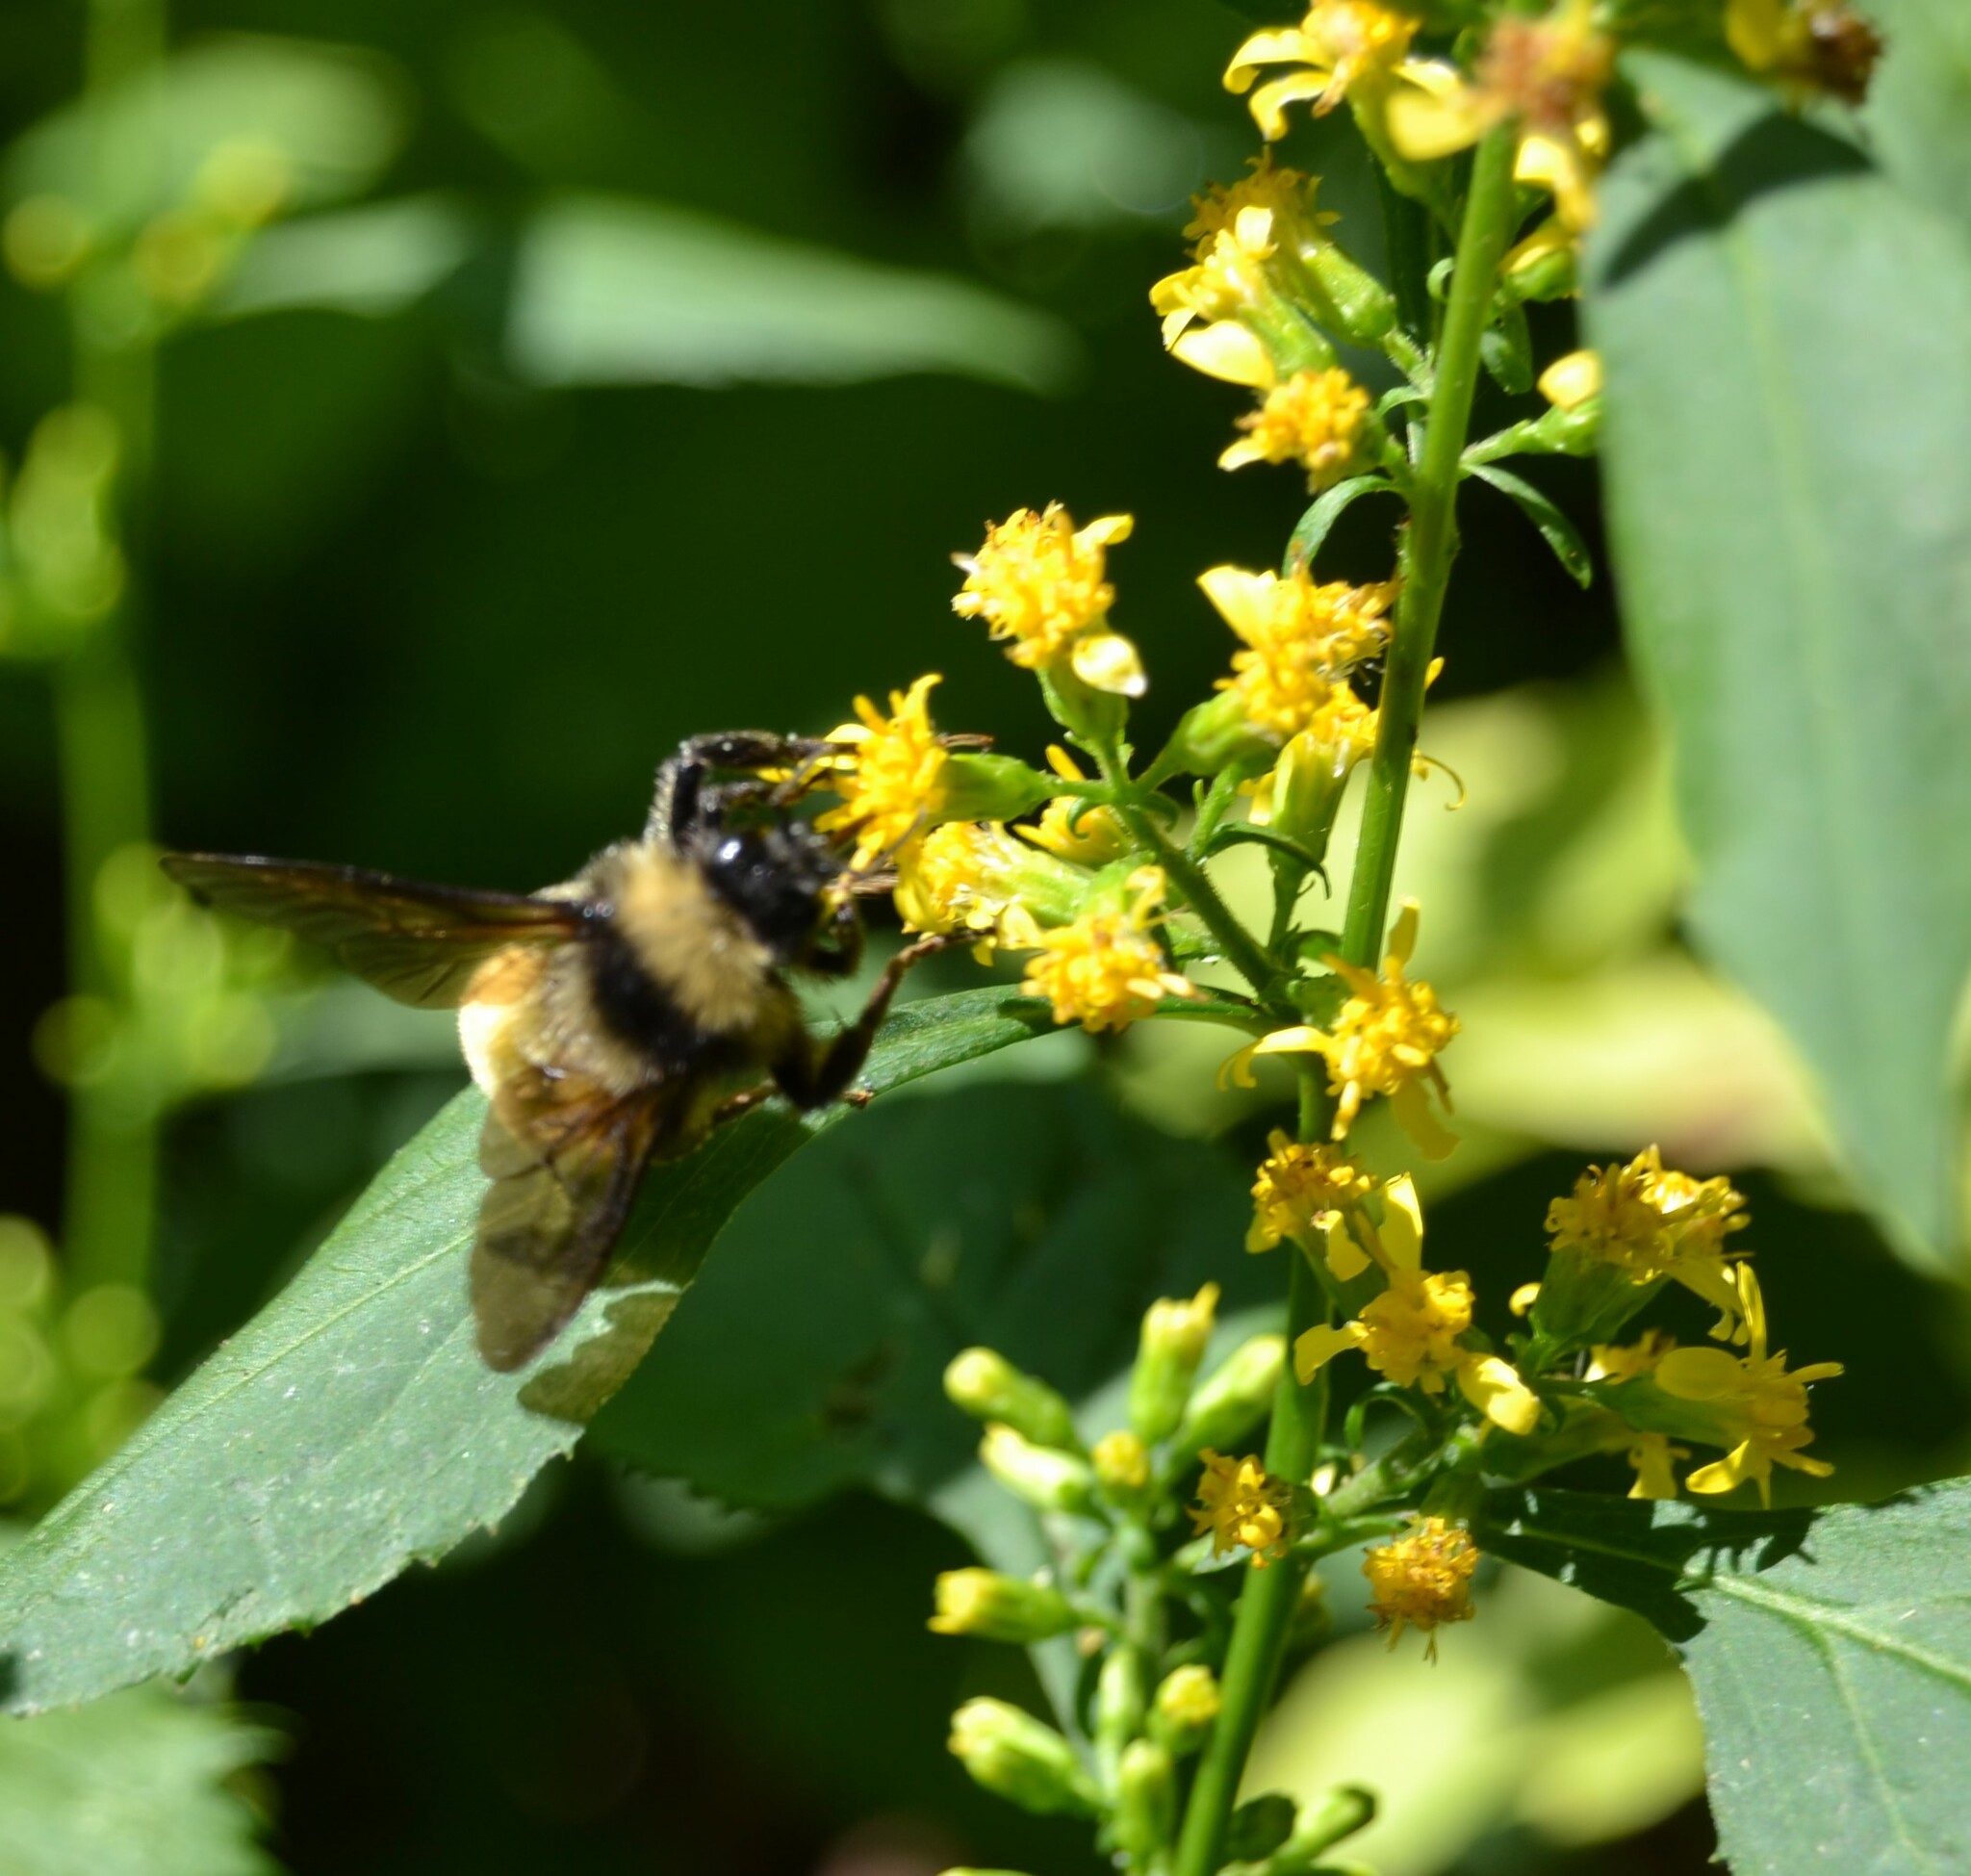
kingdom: Animalia
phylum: Arthropoda
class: Insecta
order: Hymenoptera
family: Apidae
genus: Bombus
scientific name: Bombus pensylvanicus
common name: Bumble bee
